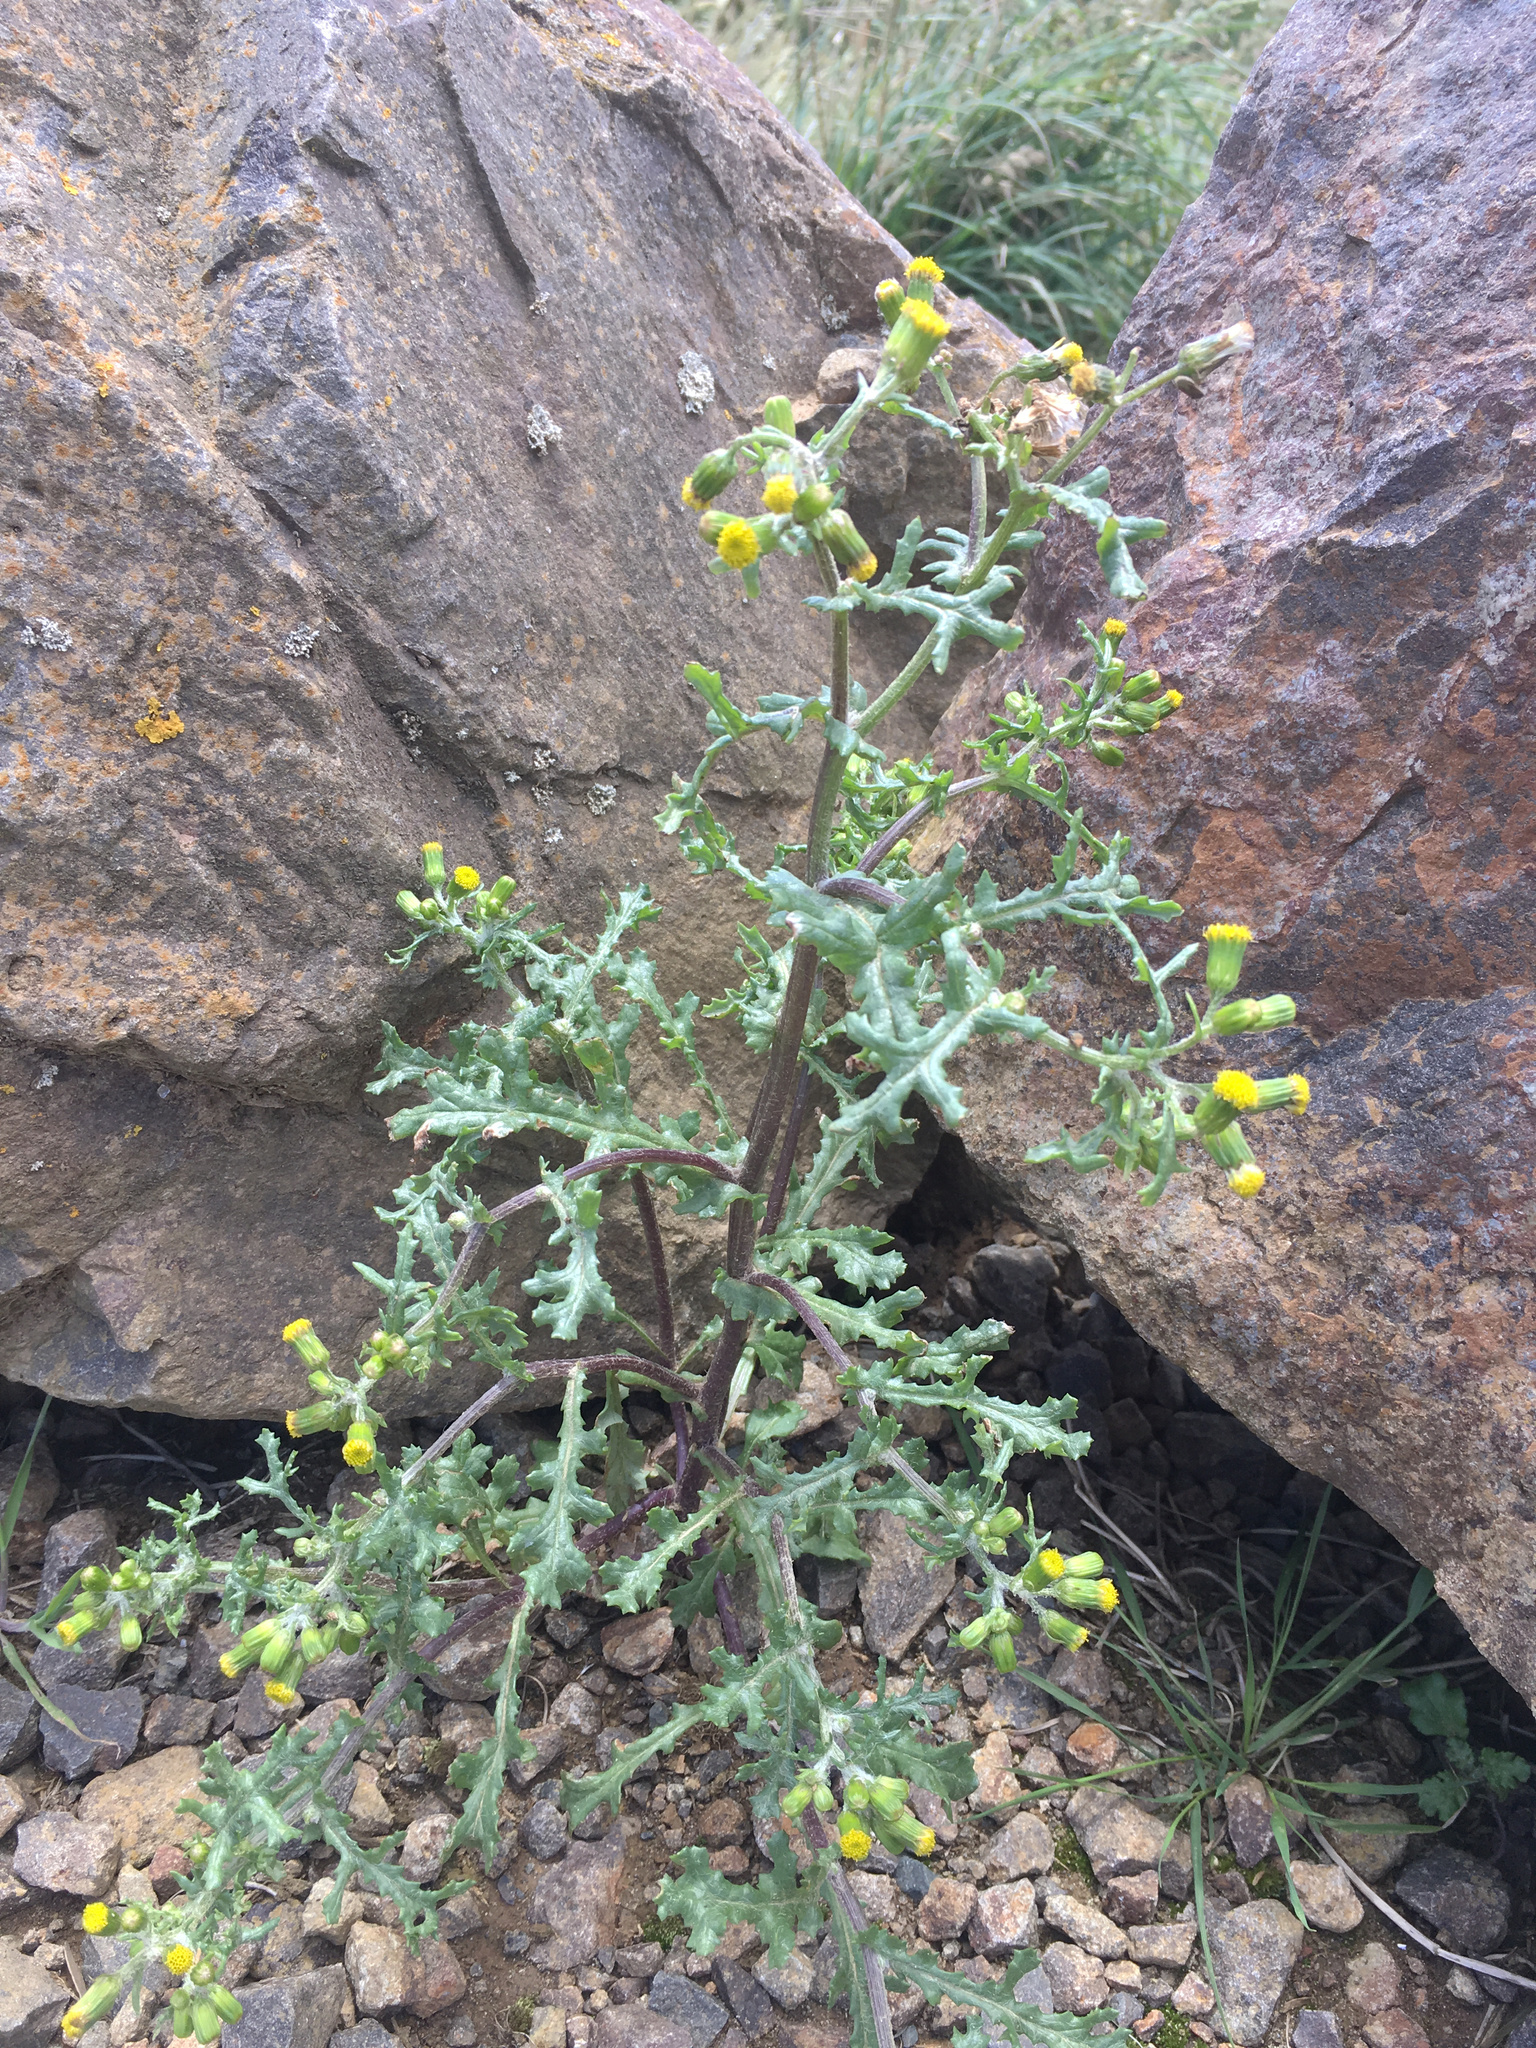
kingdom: Plantae
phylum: Tracheophyta
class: Magnoliopsida
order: Asterales
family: Asteraceae
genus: Senecio
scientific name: Senecio vulgaris
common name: Old-man-in-the-spring
